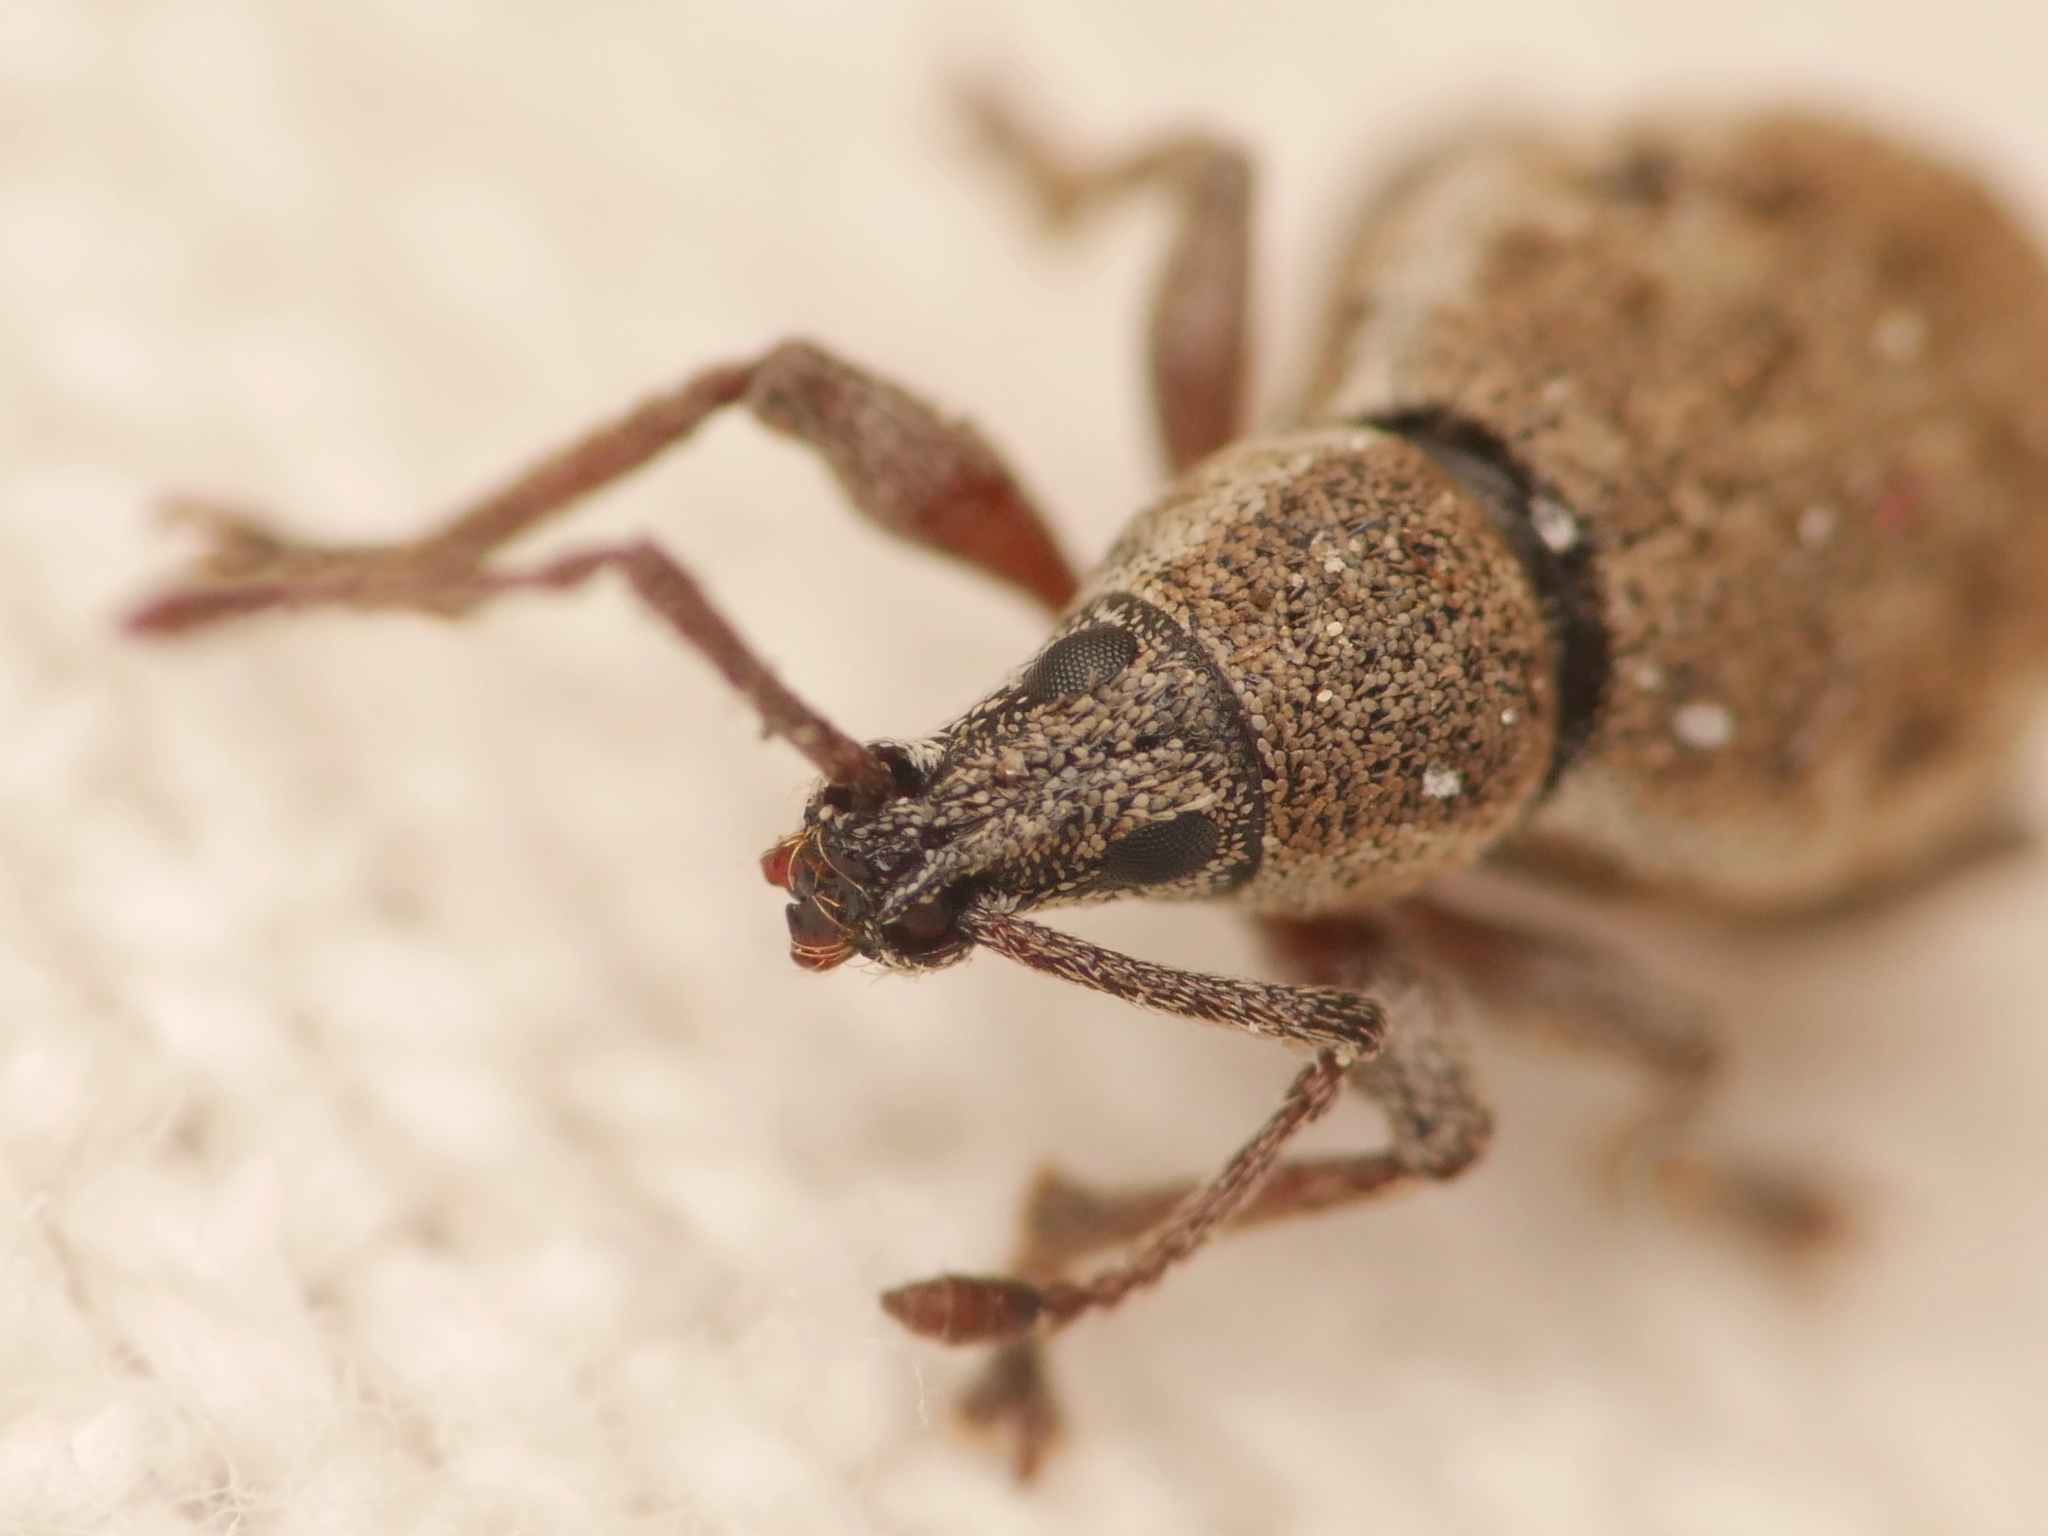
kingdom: Animalia
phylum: Arthropoda
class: Insecta
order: Coleoptera
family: Curculionidae
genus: Peritelus
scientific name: Peritelus sphaeroides
